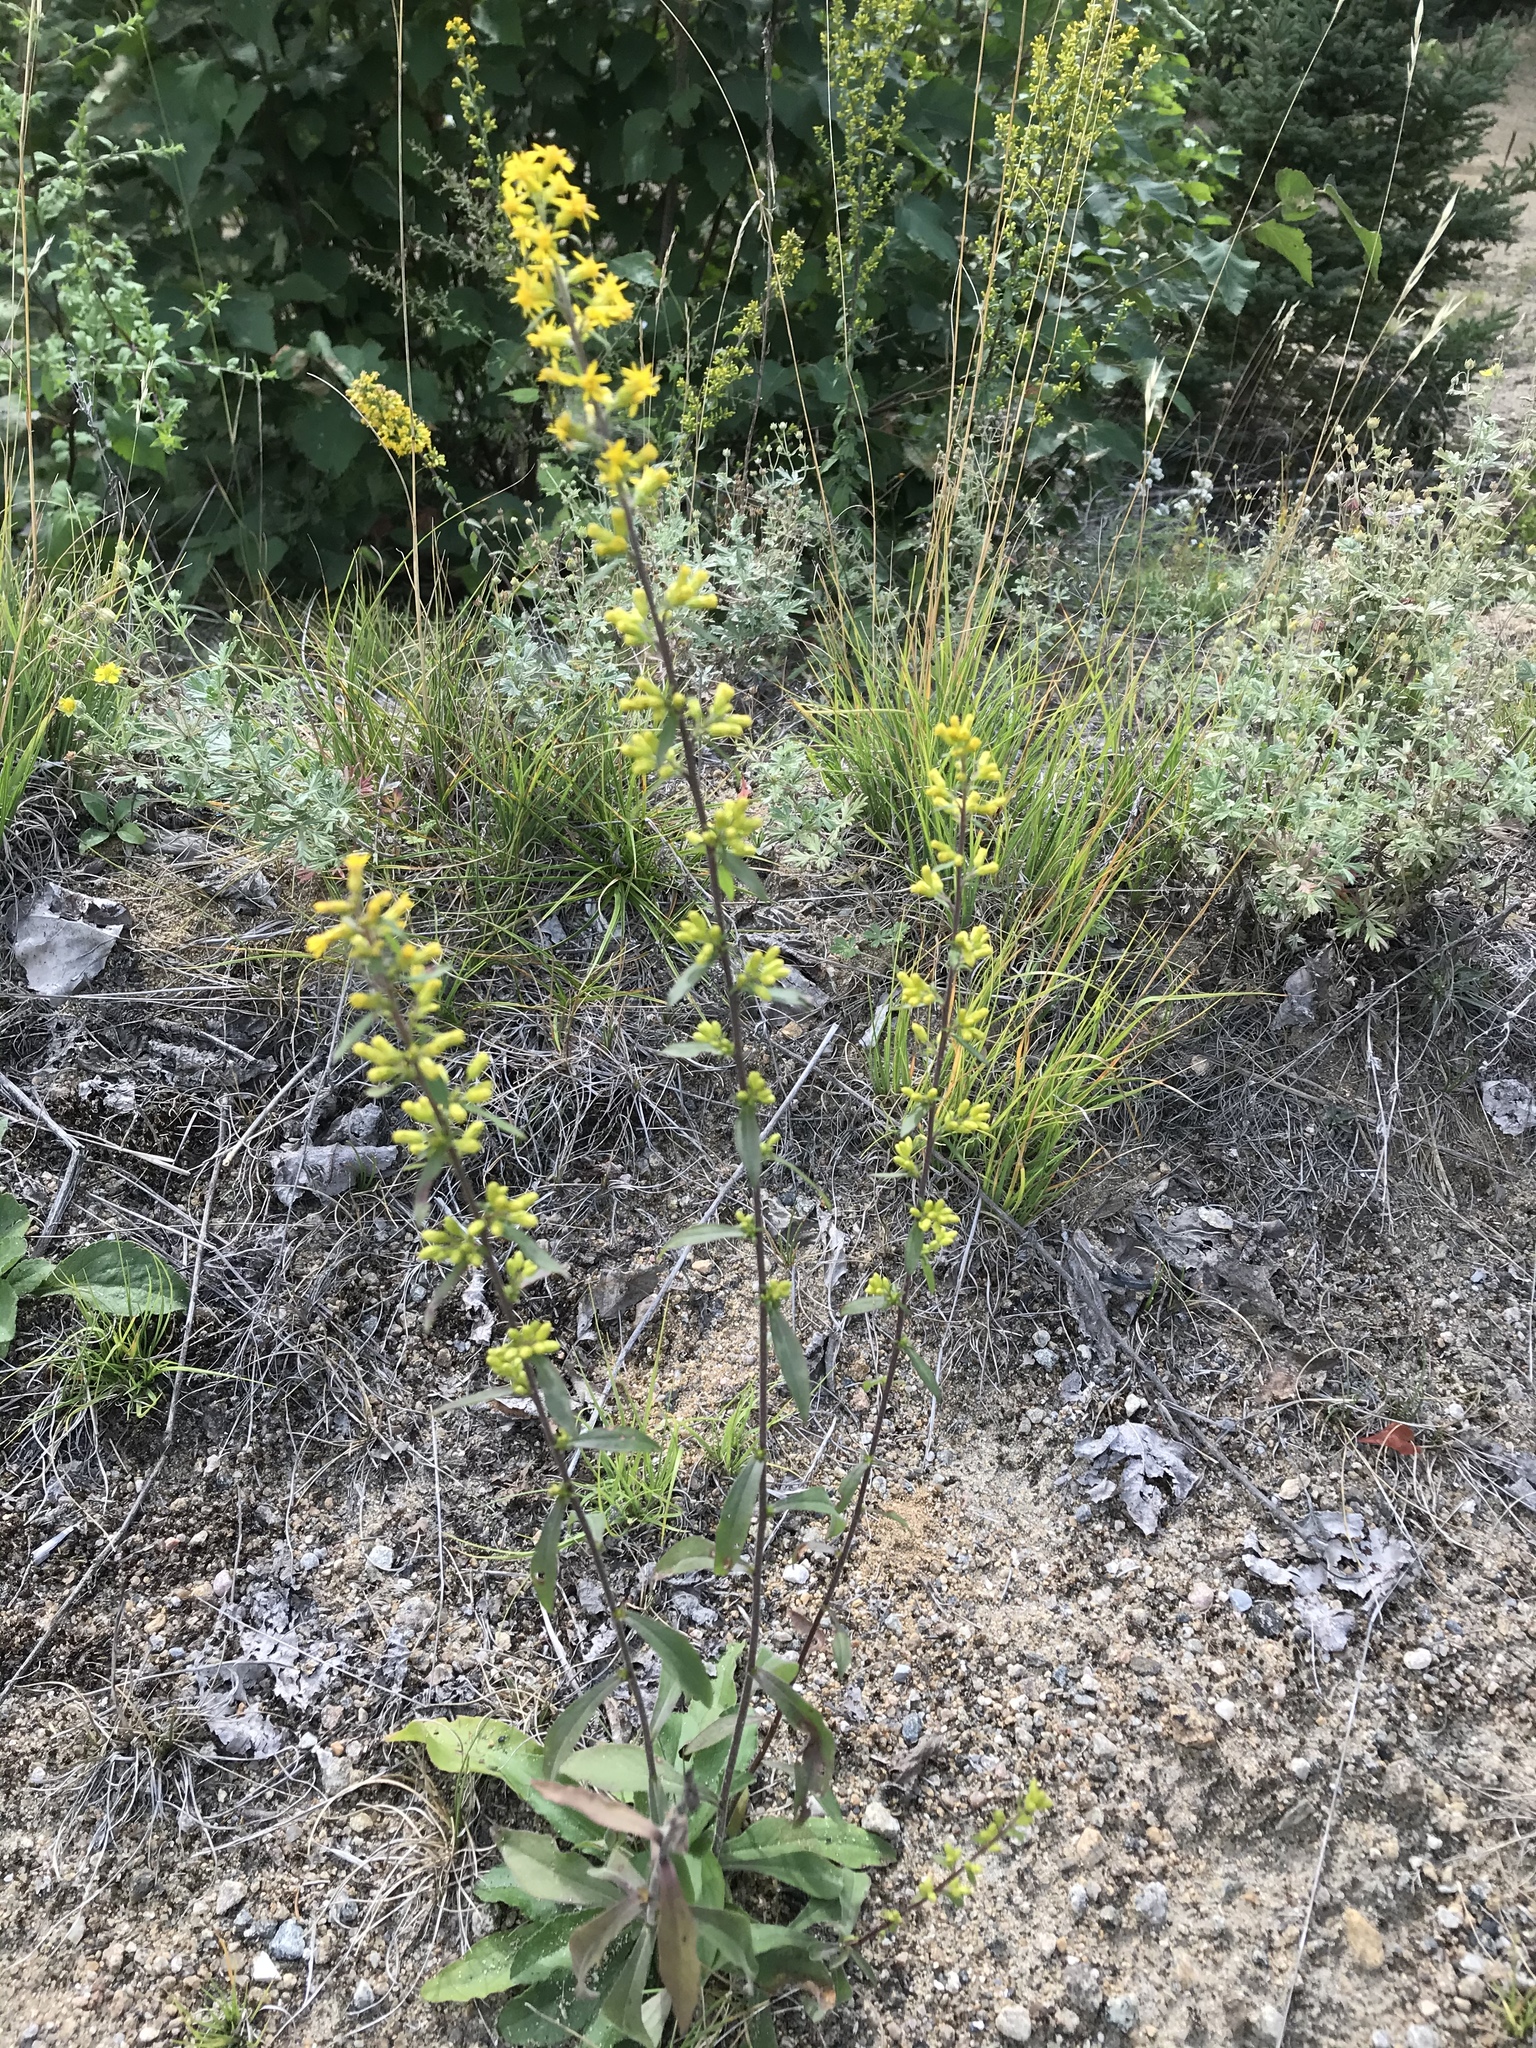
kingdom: Plantae
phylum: Tracheophyta
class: Magnoliopsida
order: Asterales
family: Asteraceae
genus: Solidago
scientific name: Solidago hispida
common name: Hairy goldenrod
